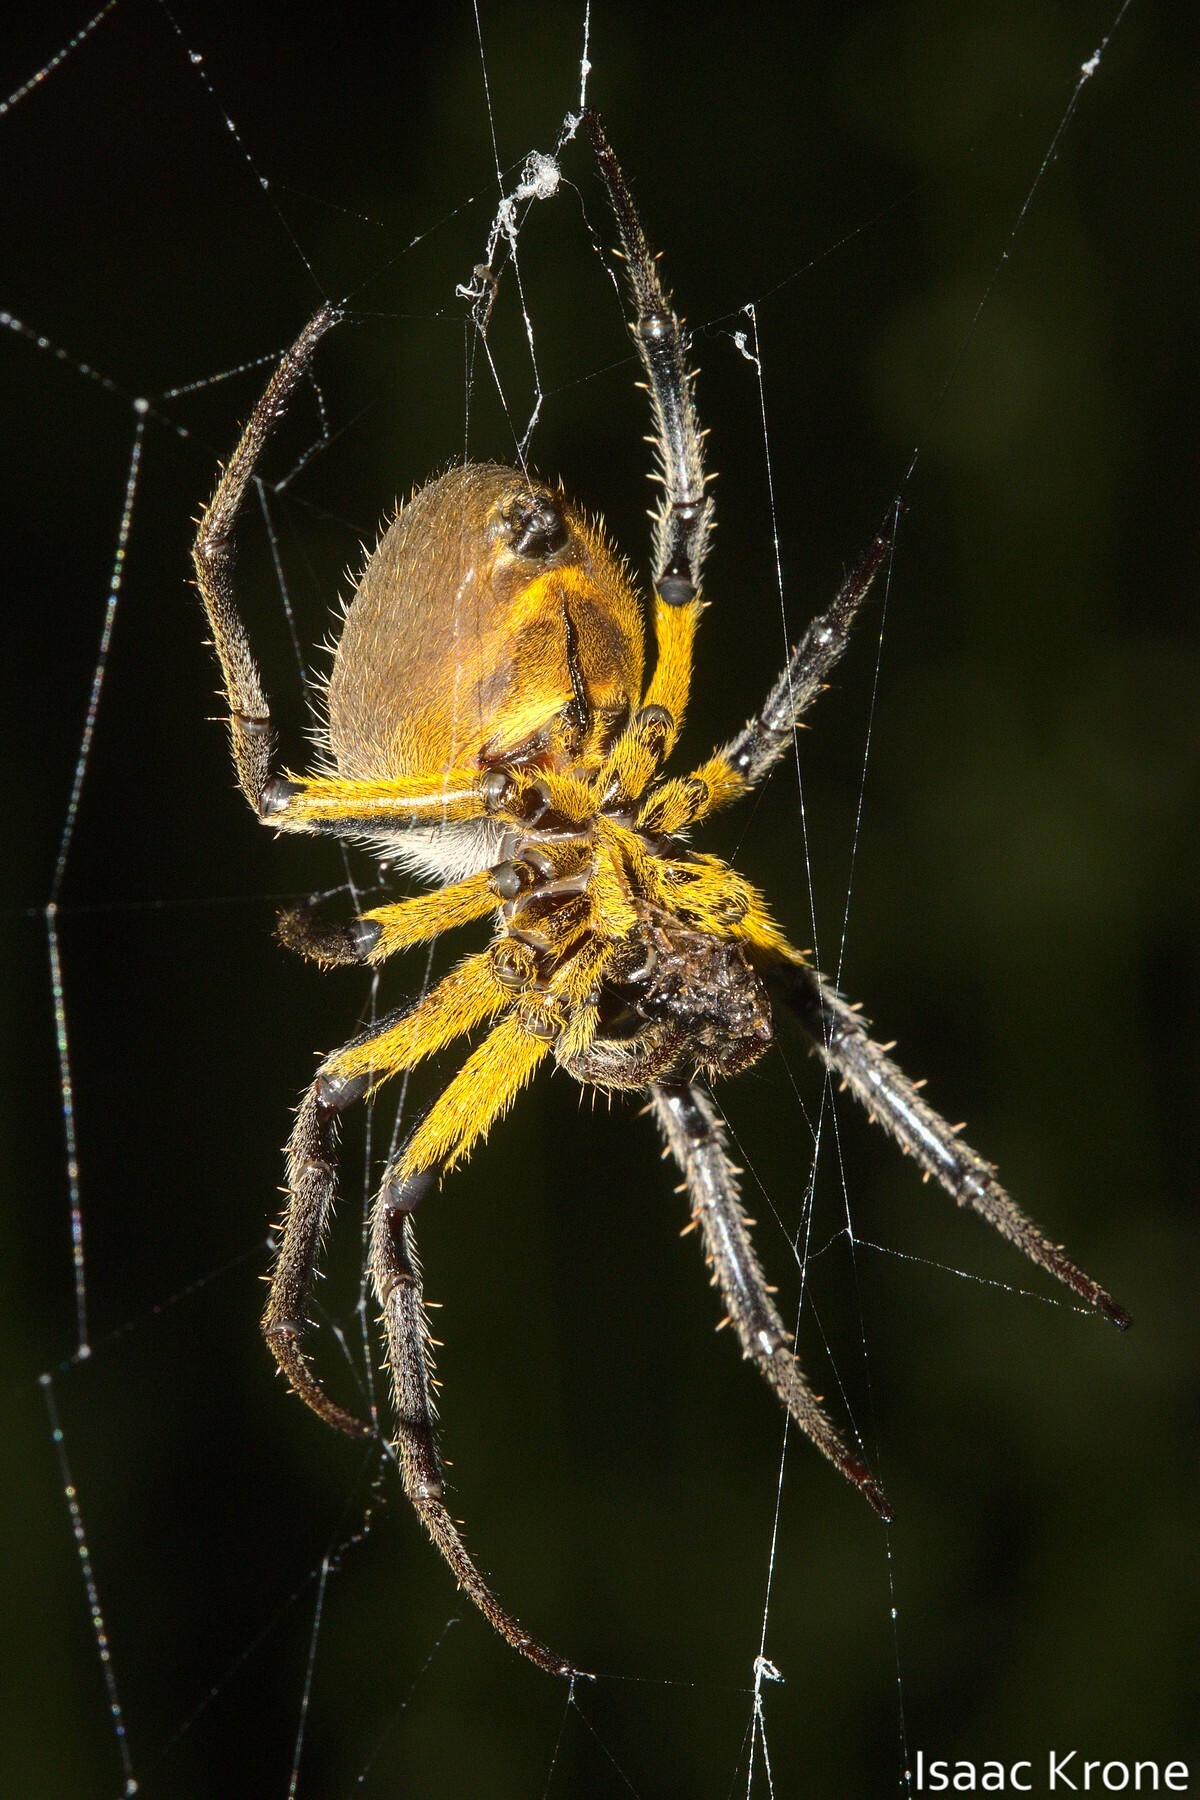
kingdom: Animalia
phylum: Arthropoda
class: Arachnida
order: Araneae
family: Araneidae
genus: Eriophora
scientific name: Eriophora fuliginea
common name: Orb weavers
